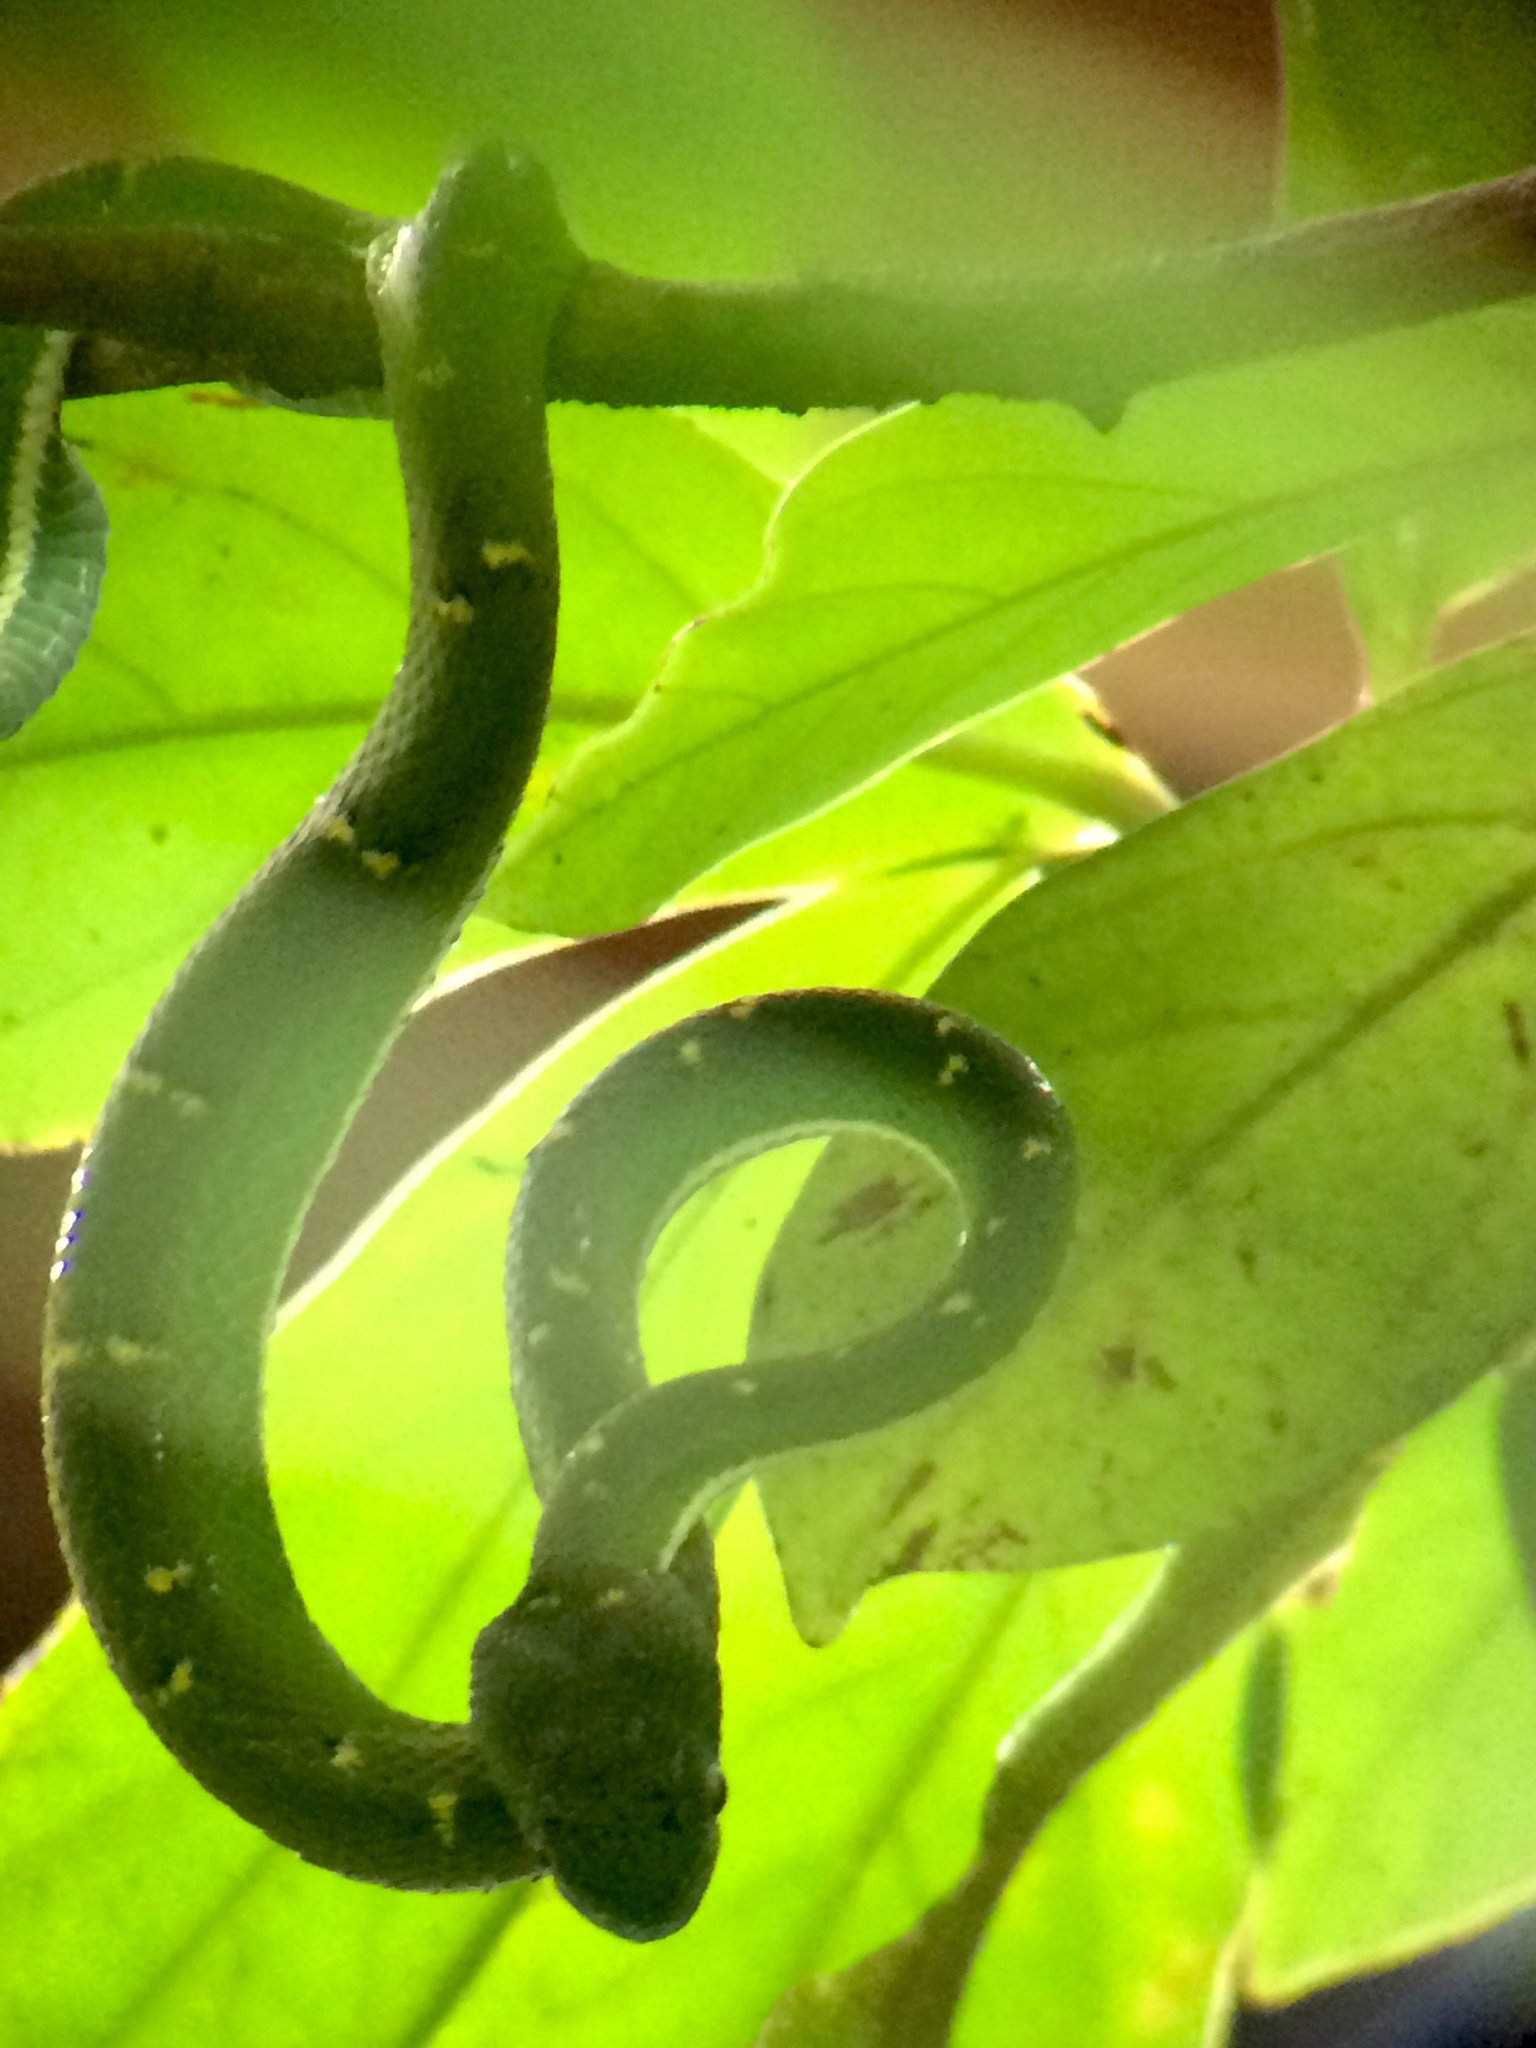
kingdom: Animalia
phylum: Chordata
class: Squamata
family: Viperidae
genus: Bothriechis
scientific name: Bothriechis lateralis
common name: Coffee palm viper
